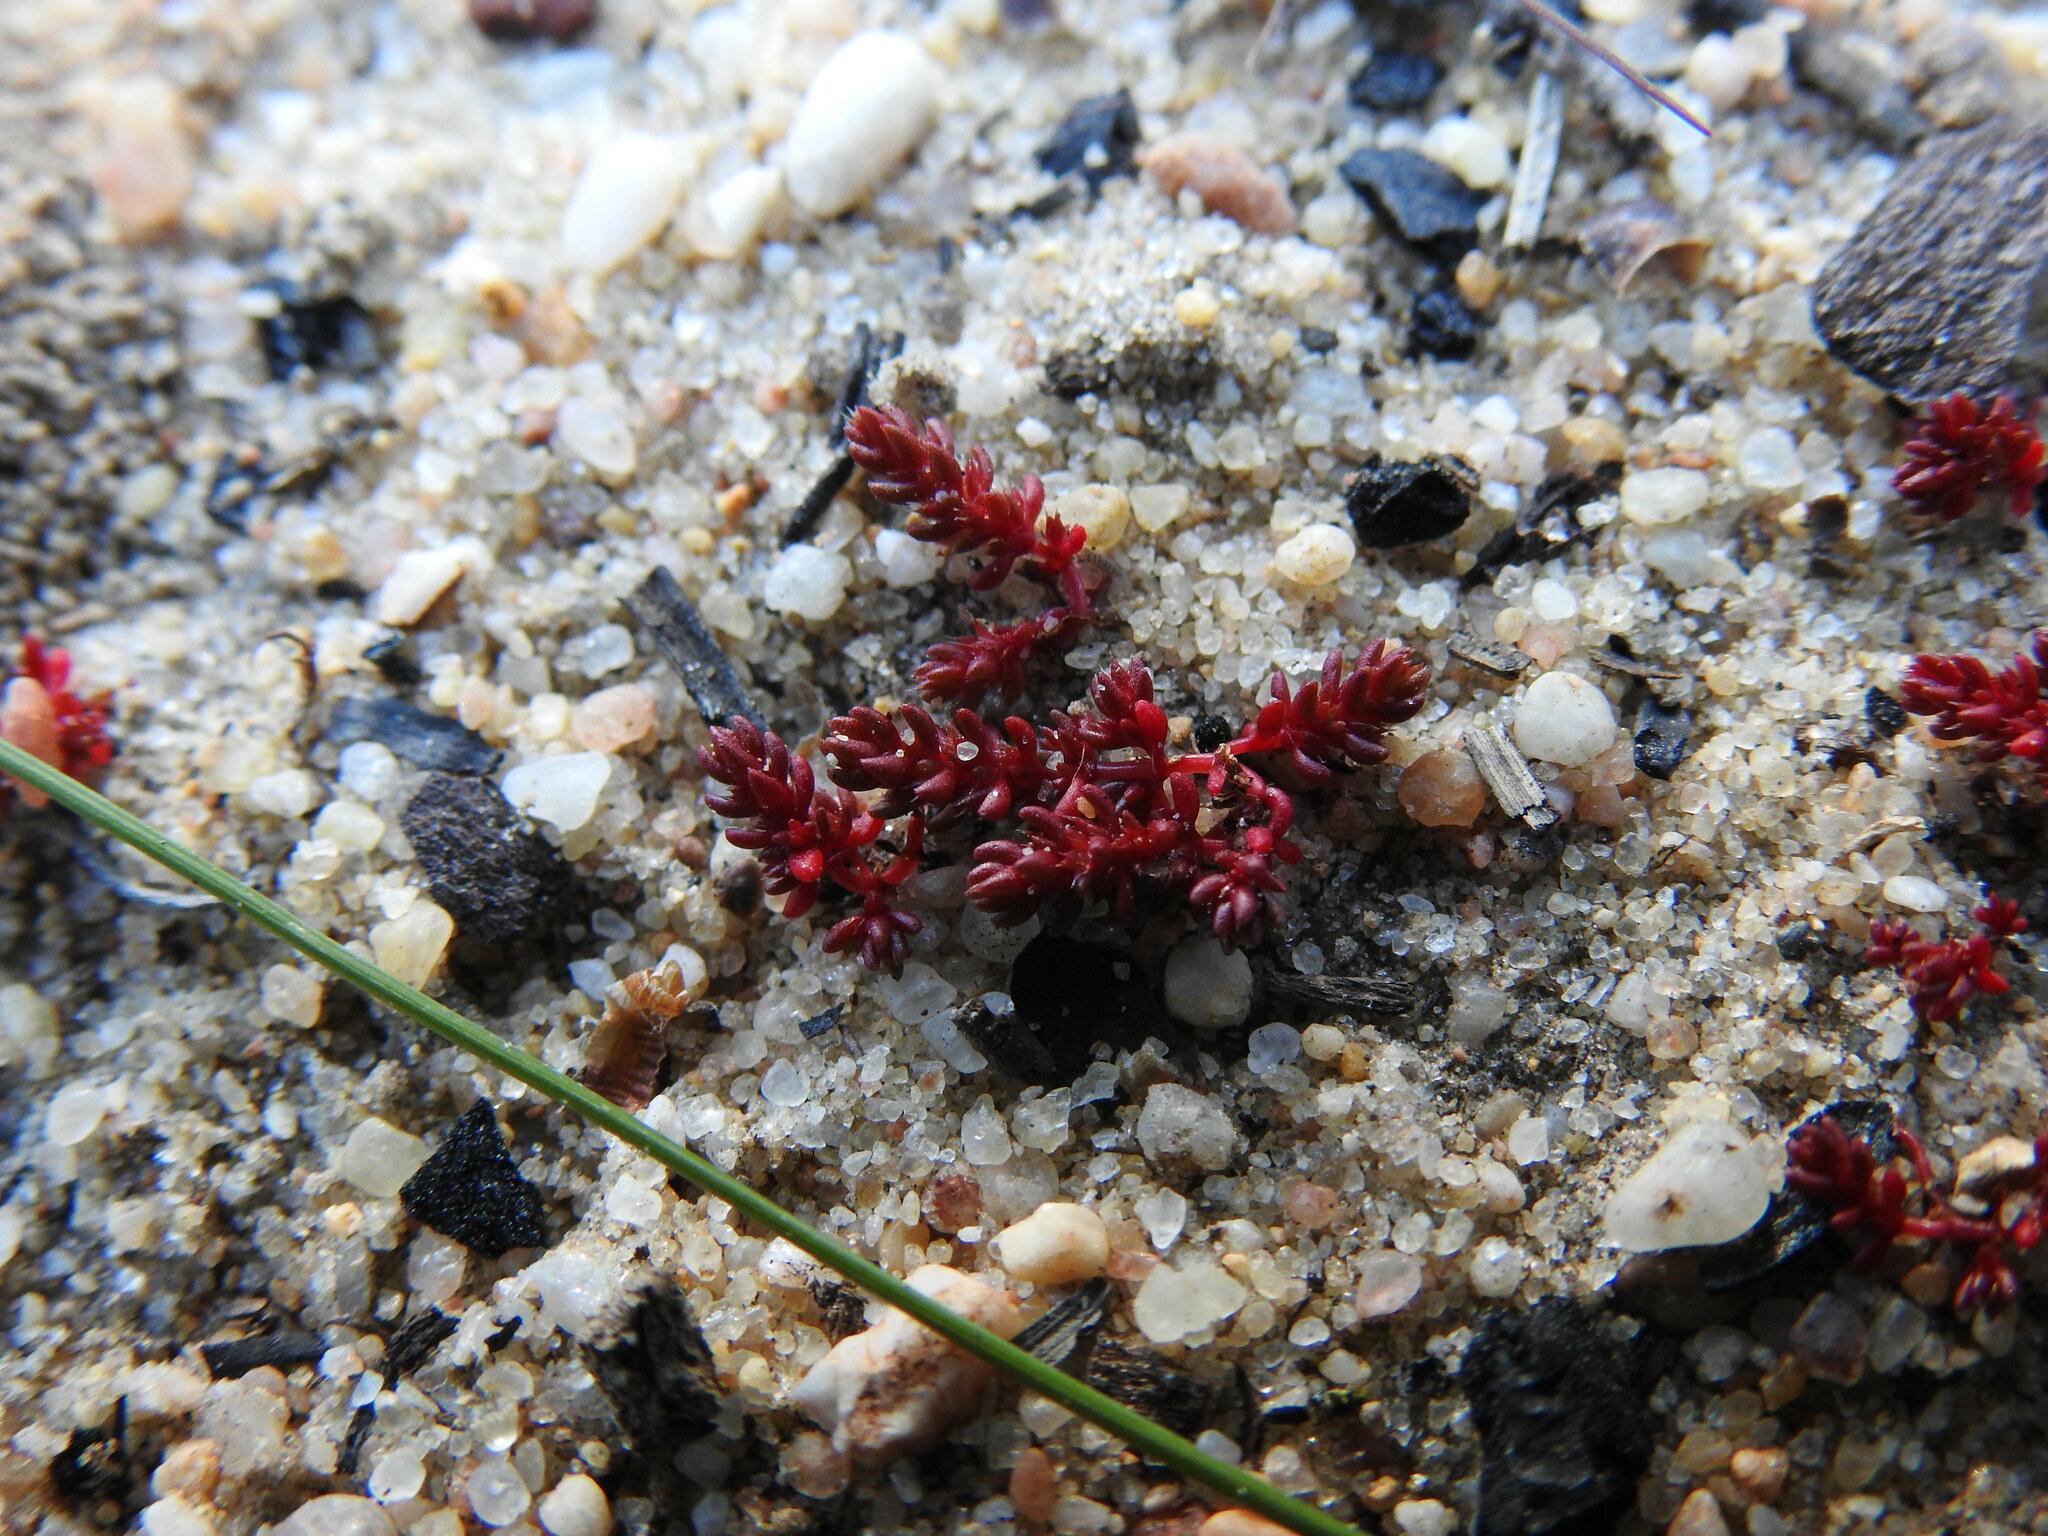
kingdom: Plantae
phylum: Tracheophyta
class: Magnoliopsida
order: Saxifragales
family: Crassulaceae
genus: Crassula
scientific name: Crassula tillaea
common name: Mossy stonecrop
